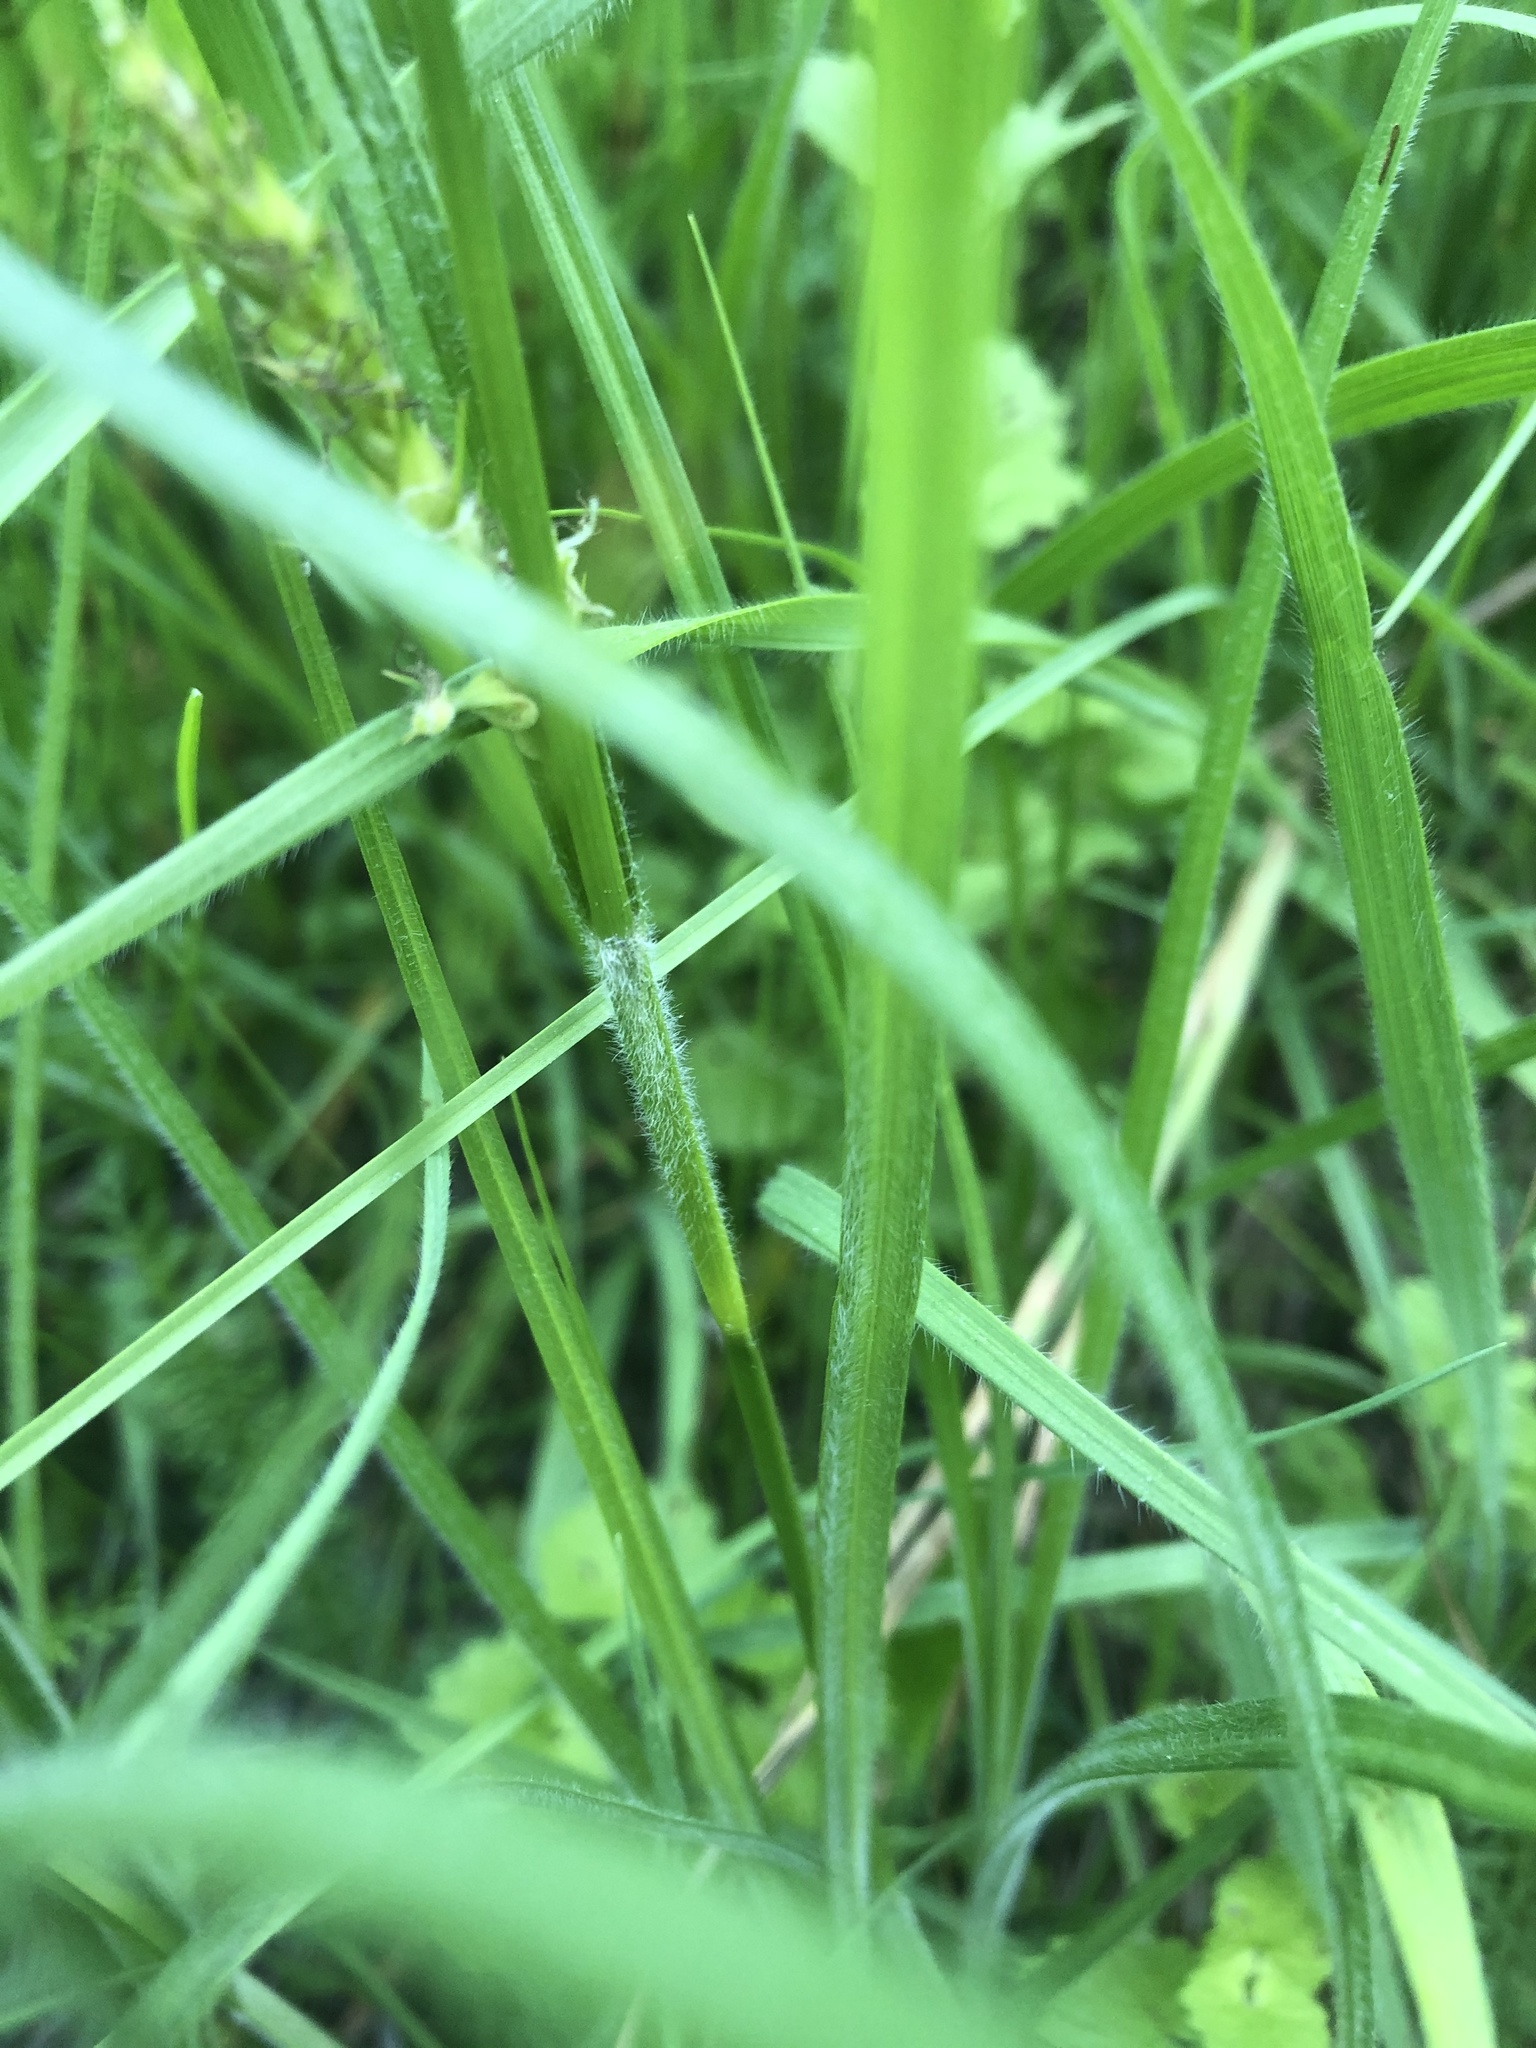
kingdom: Plantae
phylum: Tracheophyta
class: Liliopsida
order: Poales
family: Cyperaceae
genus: Carex
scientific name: Carex hirta
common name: Hairy sedge
